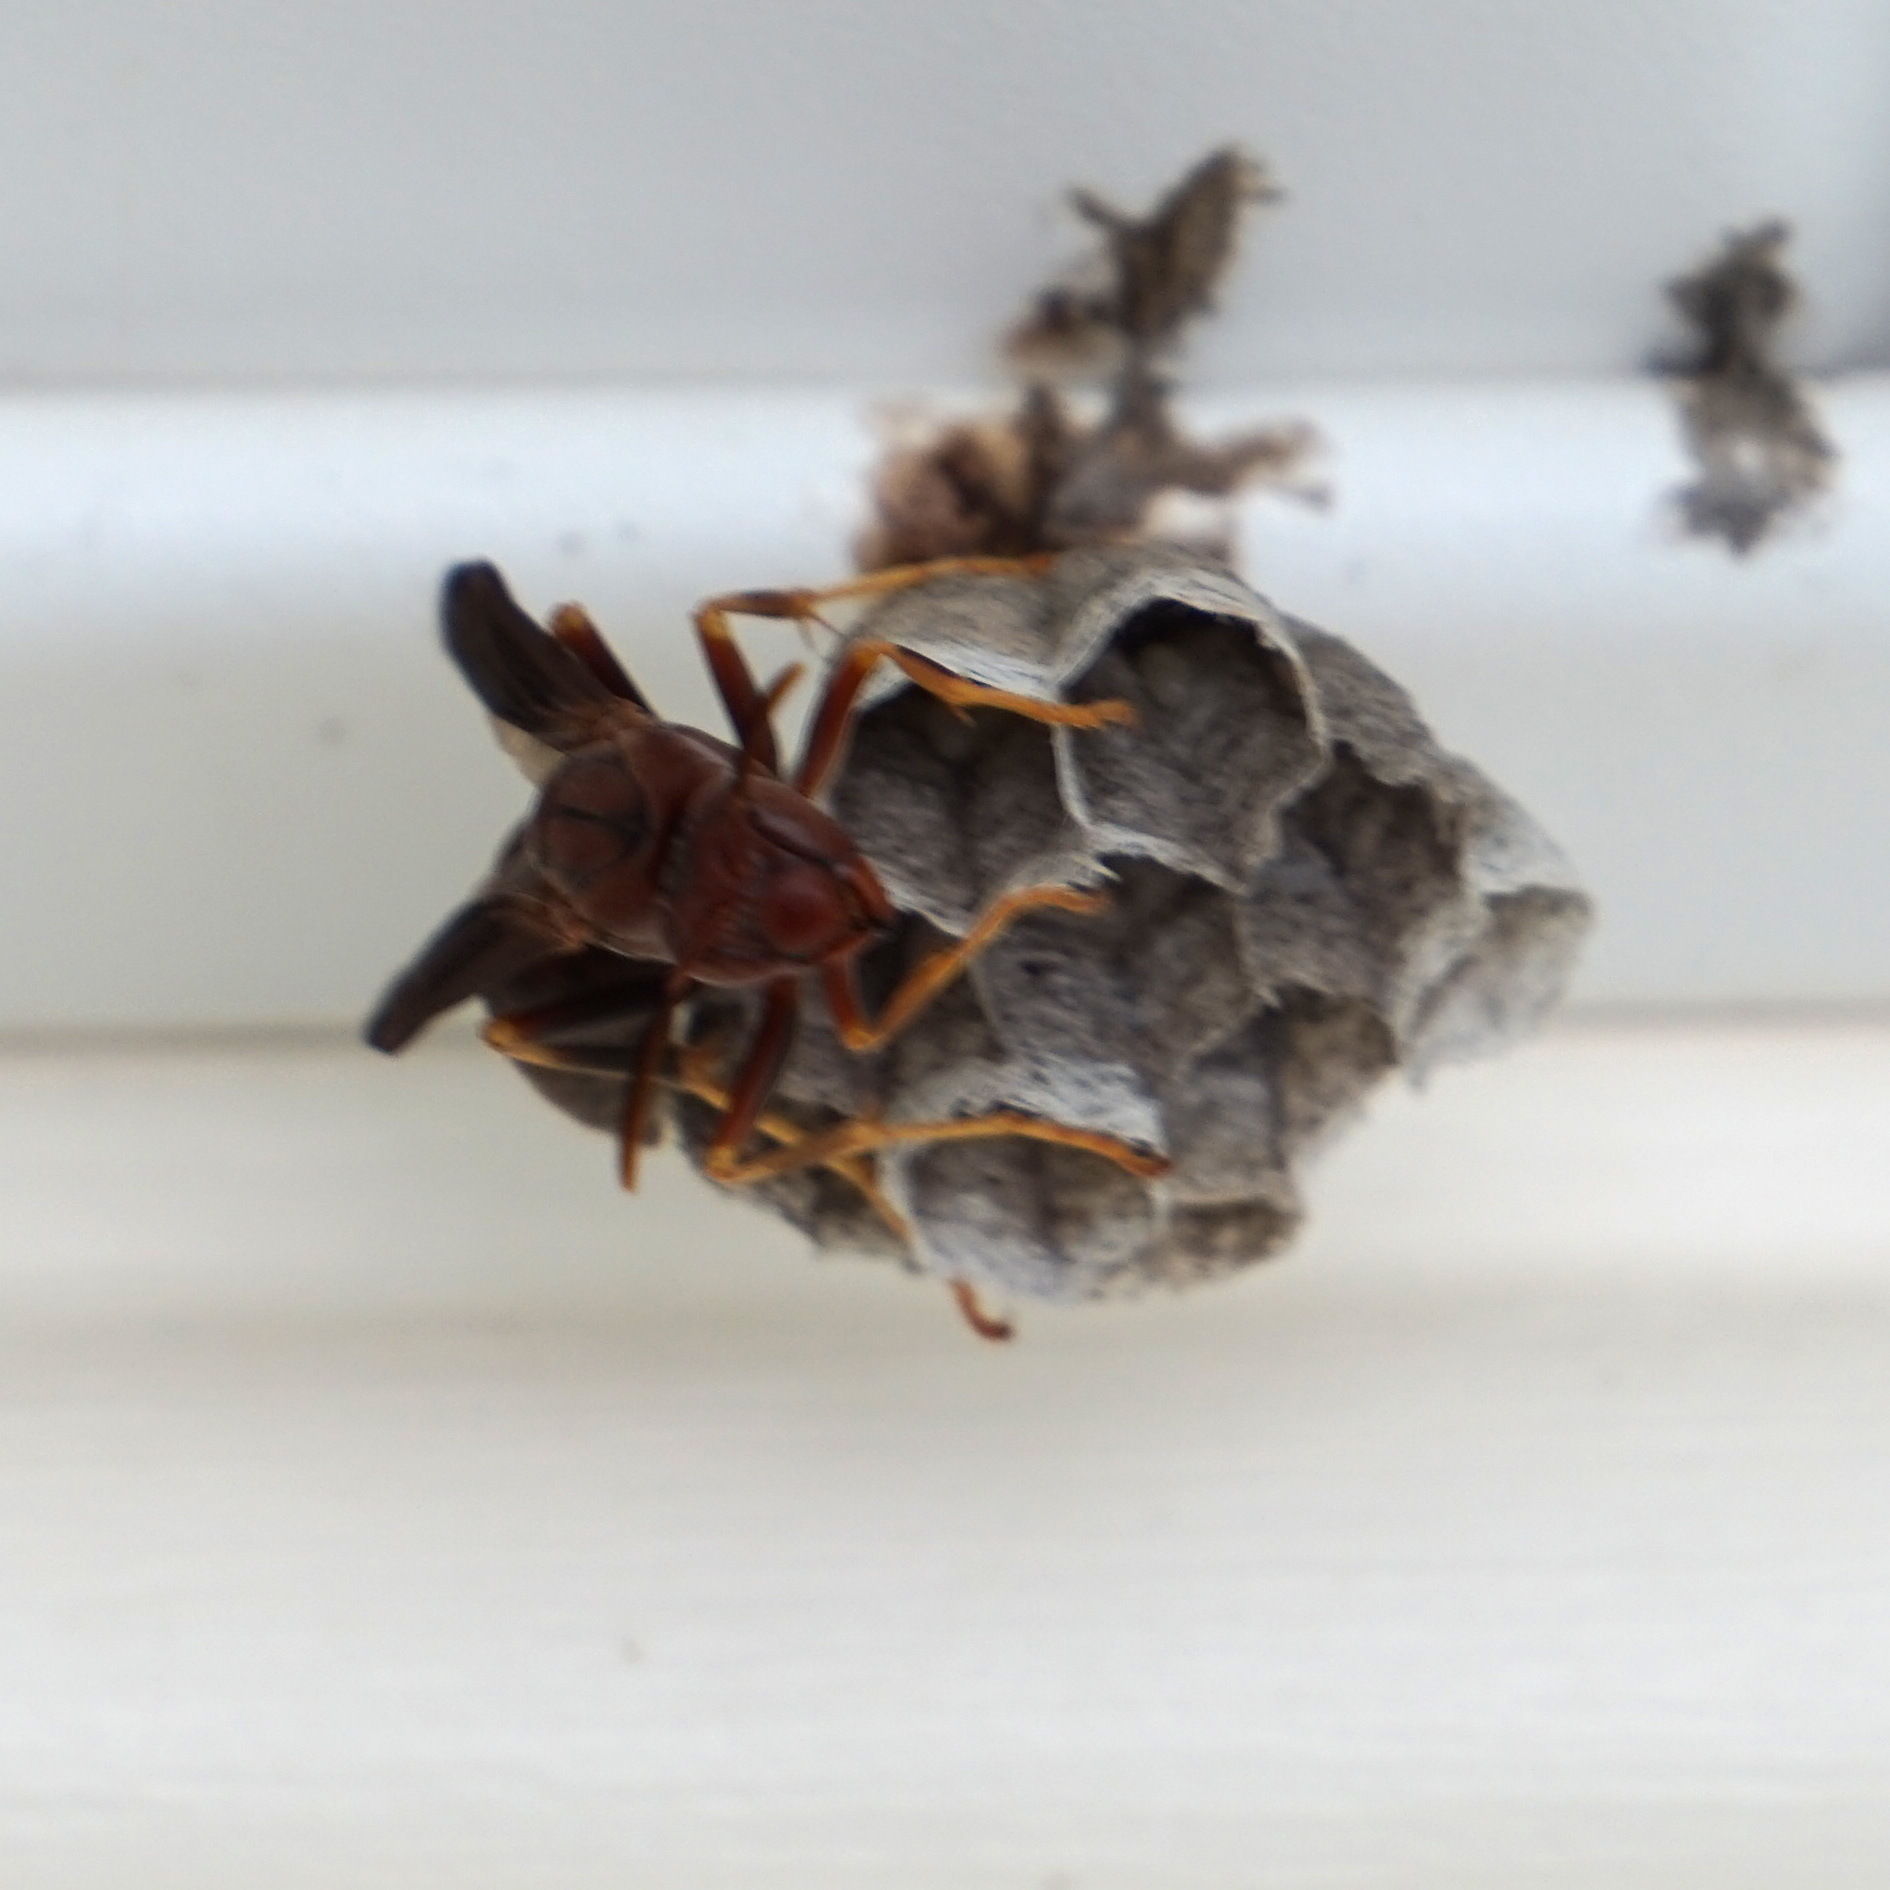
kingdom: Animalia
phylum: Arthropoda
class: Insecta
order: Hymenoptera
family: Eumenidae
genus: Polistes
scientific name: Polistes metricus
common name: Metric paper wasp
